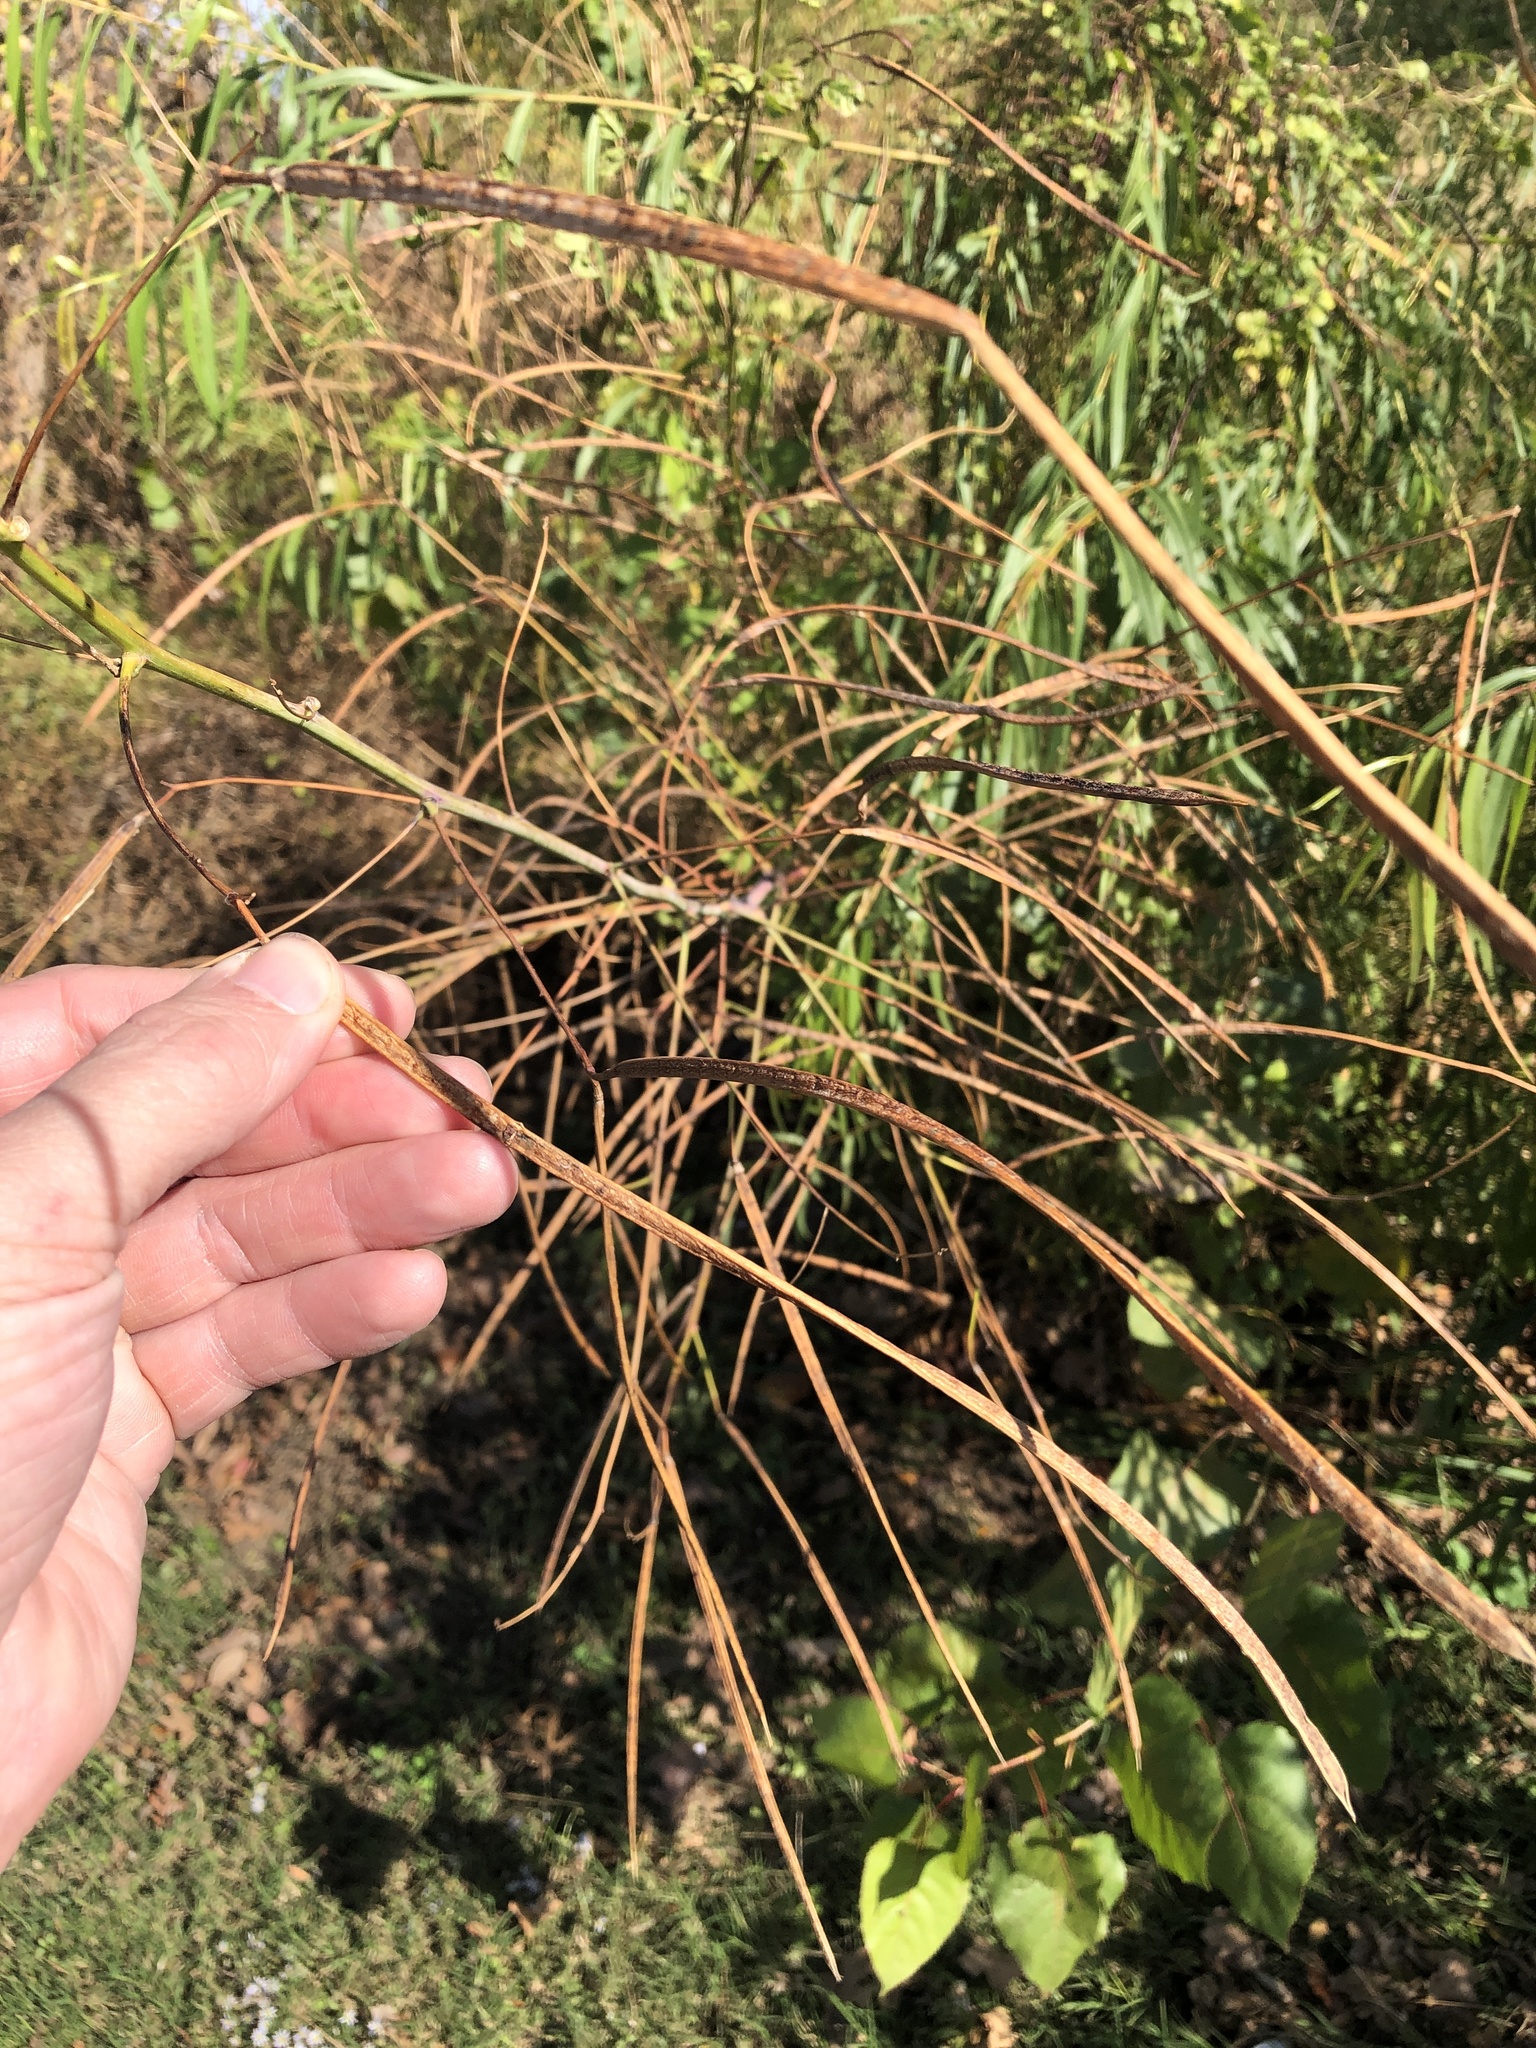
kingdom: Plantae
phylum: Tracheophyta
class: Magnoliopsida
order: Fabales
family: Fabaceae
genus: Sesbania
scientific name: Sesbania herbacea
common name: Bigpod sesbania
